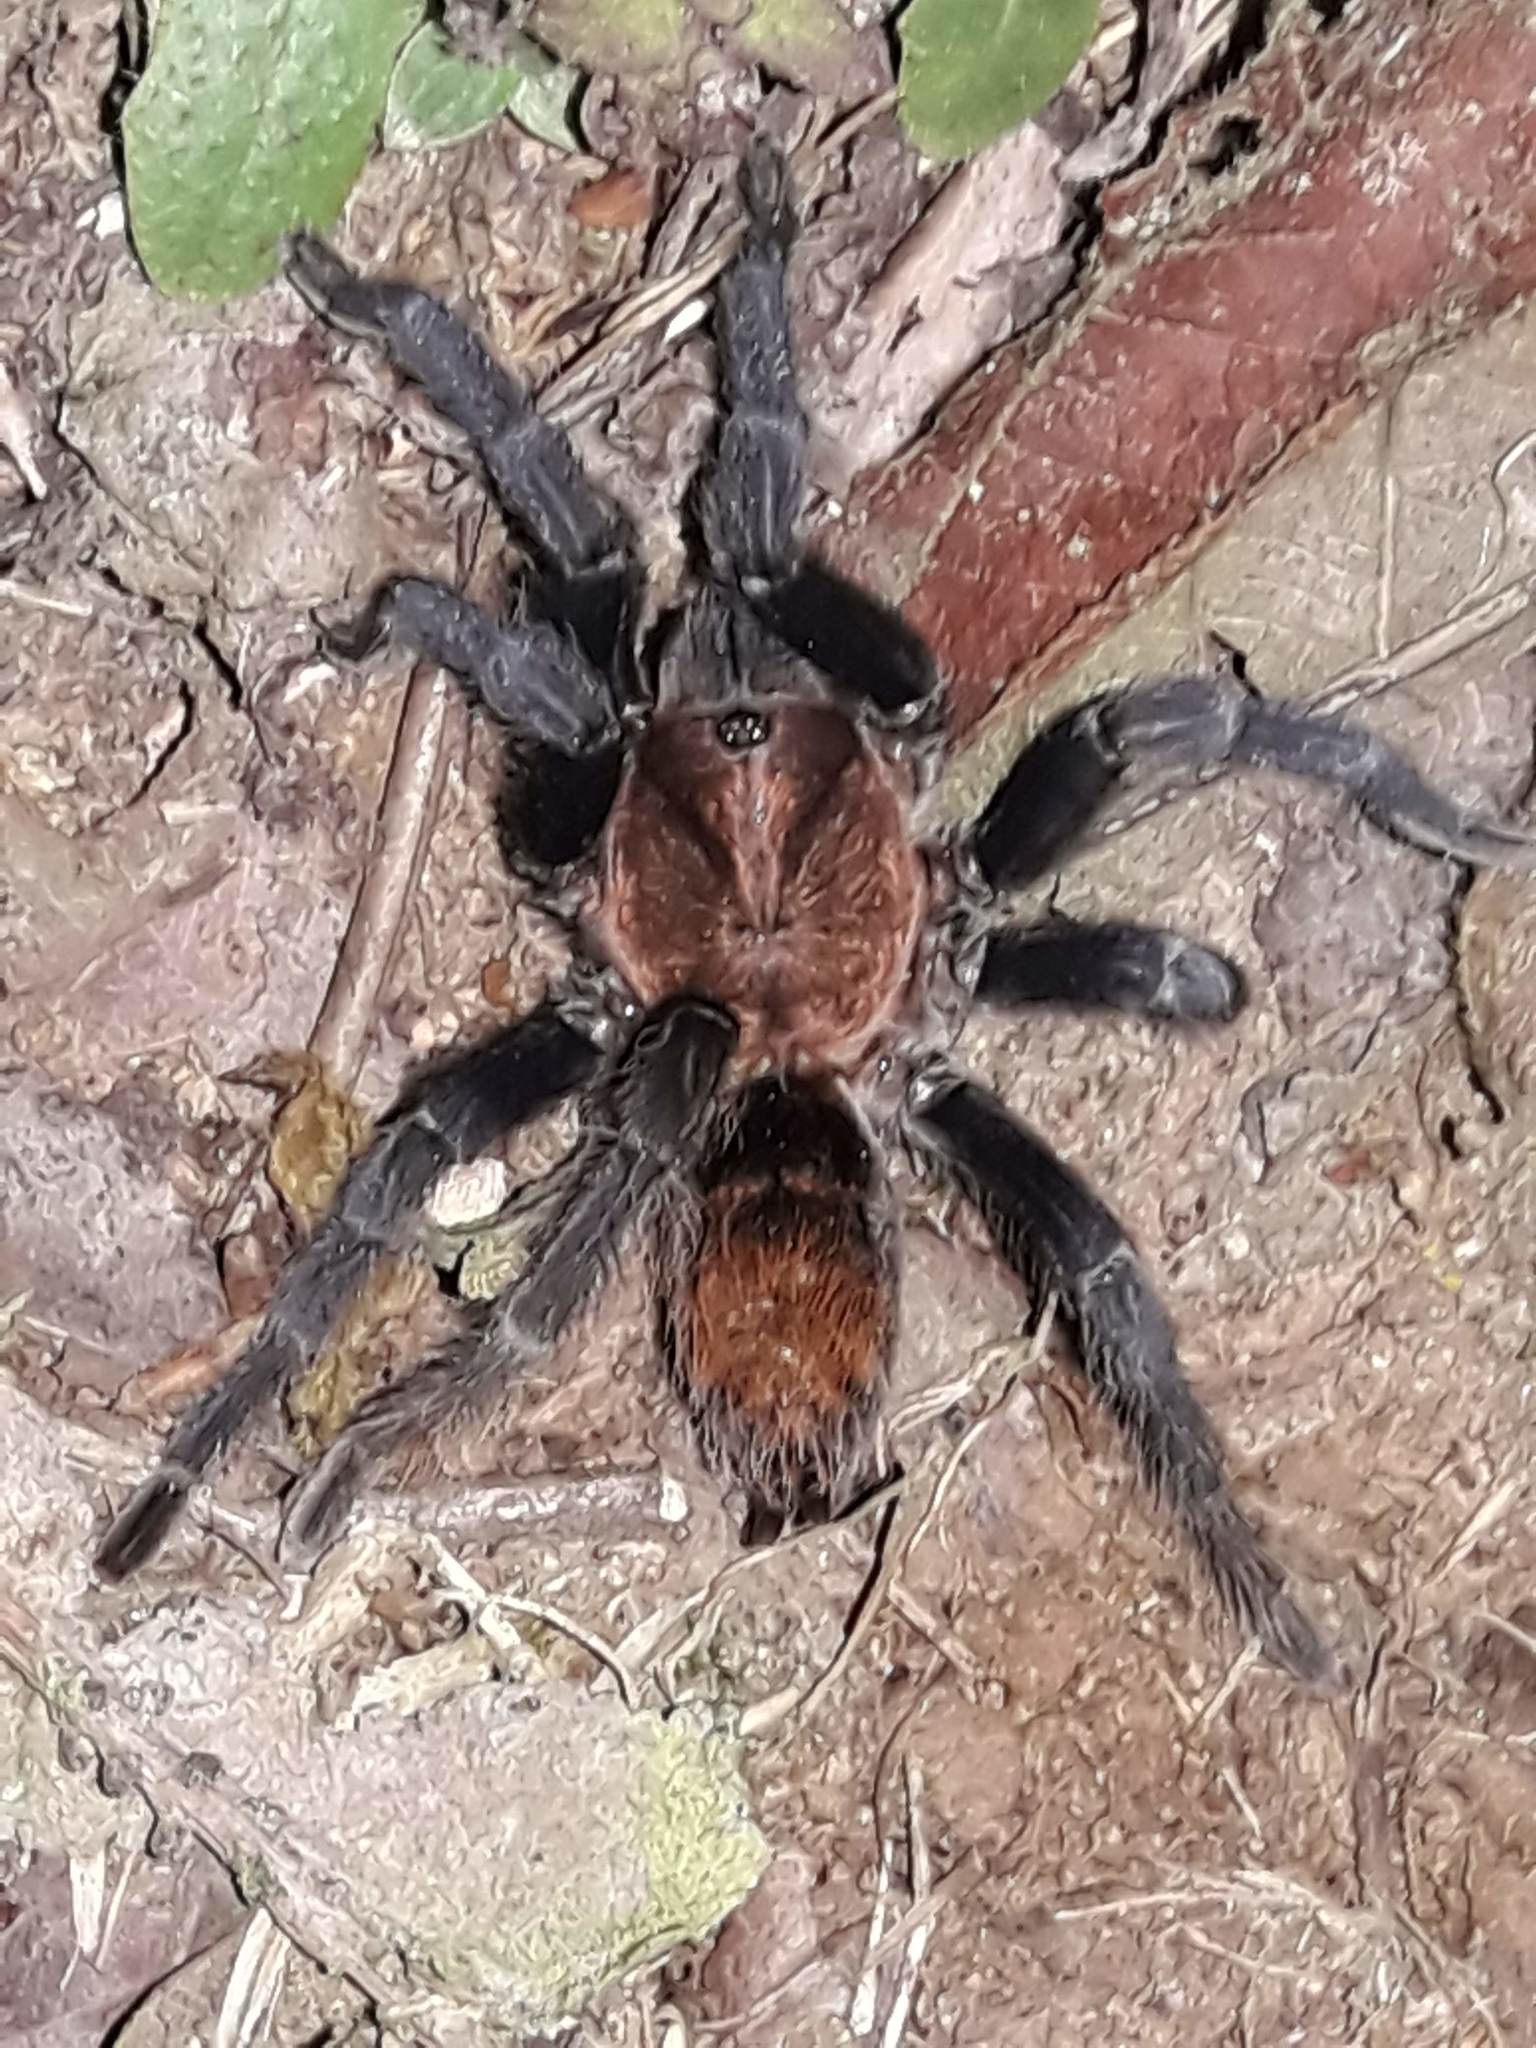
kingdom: Animalia
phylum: Arthropoda
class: Arachnida
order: Araneae
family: Theraphosidae
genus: Davus
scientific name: Davus ruficeps
